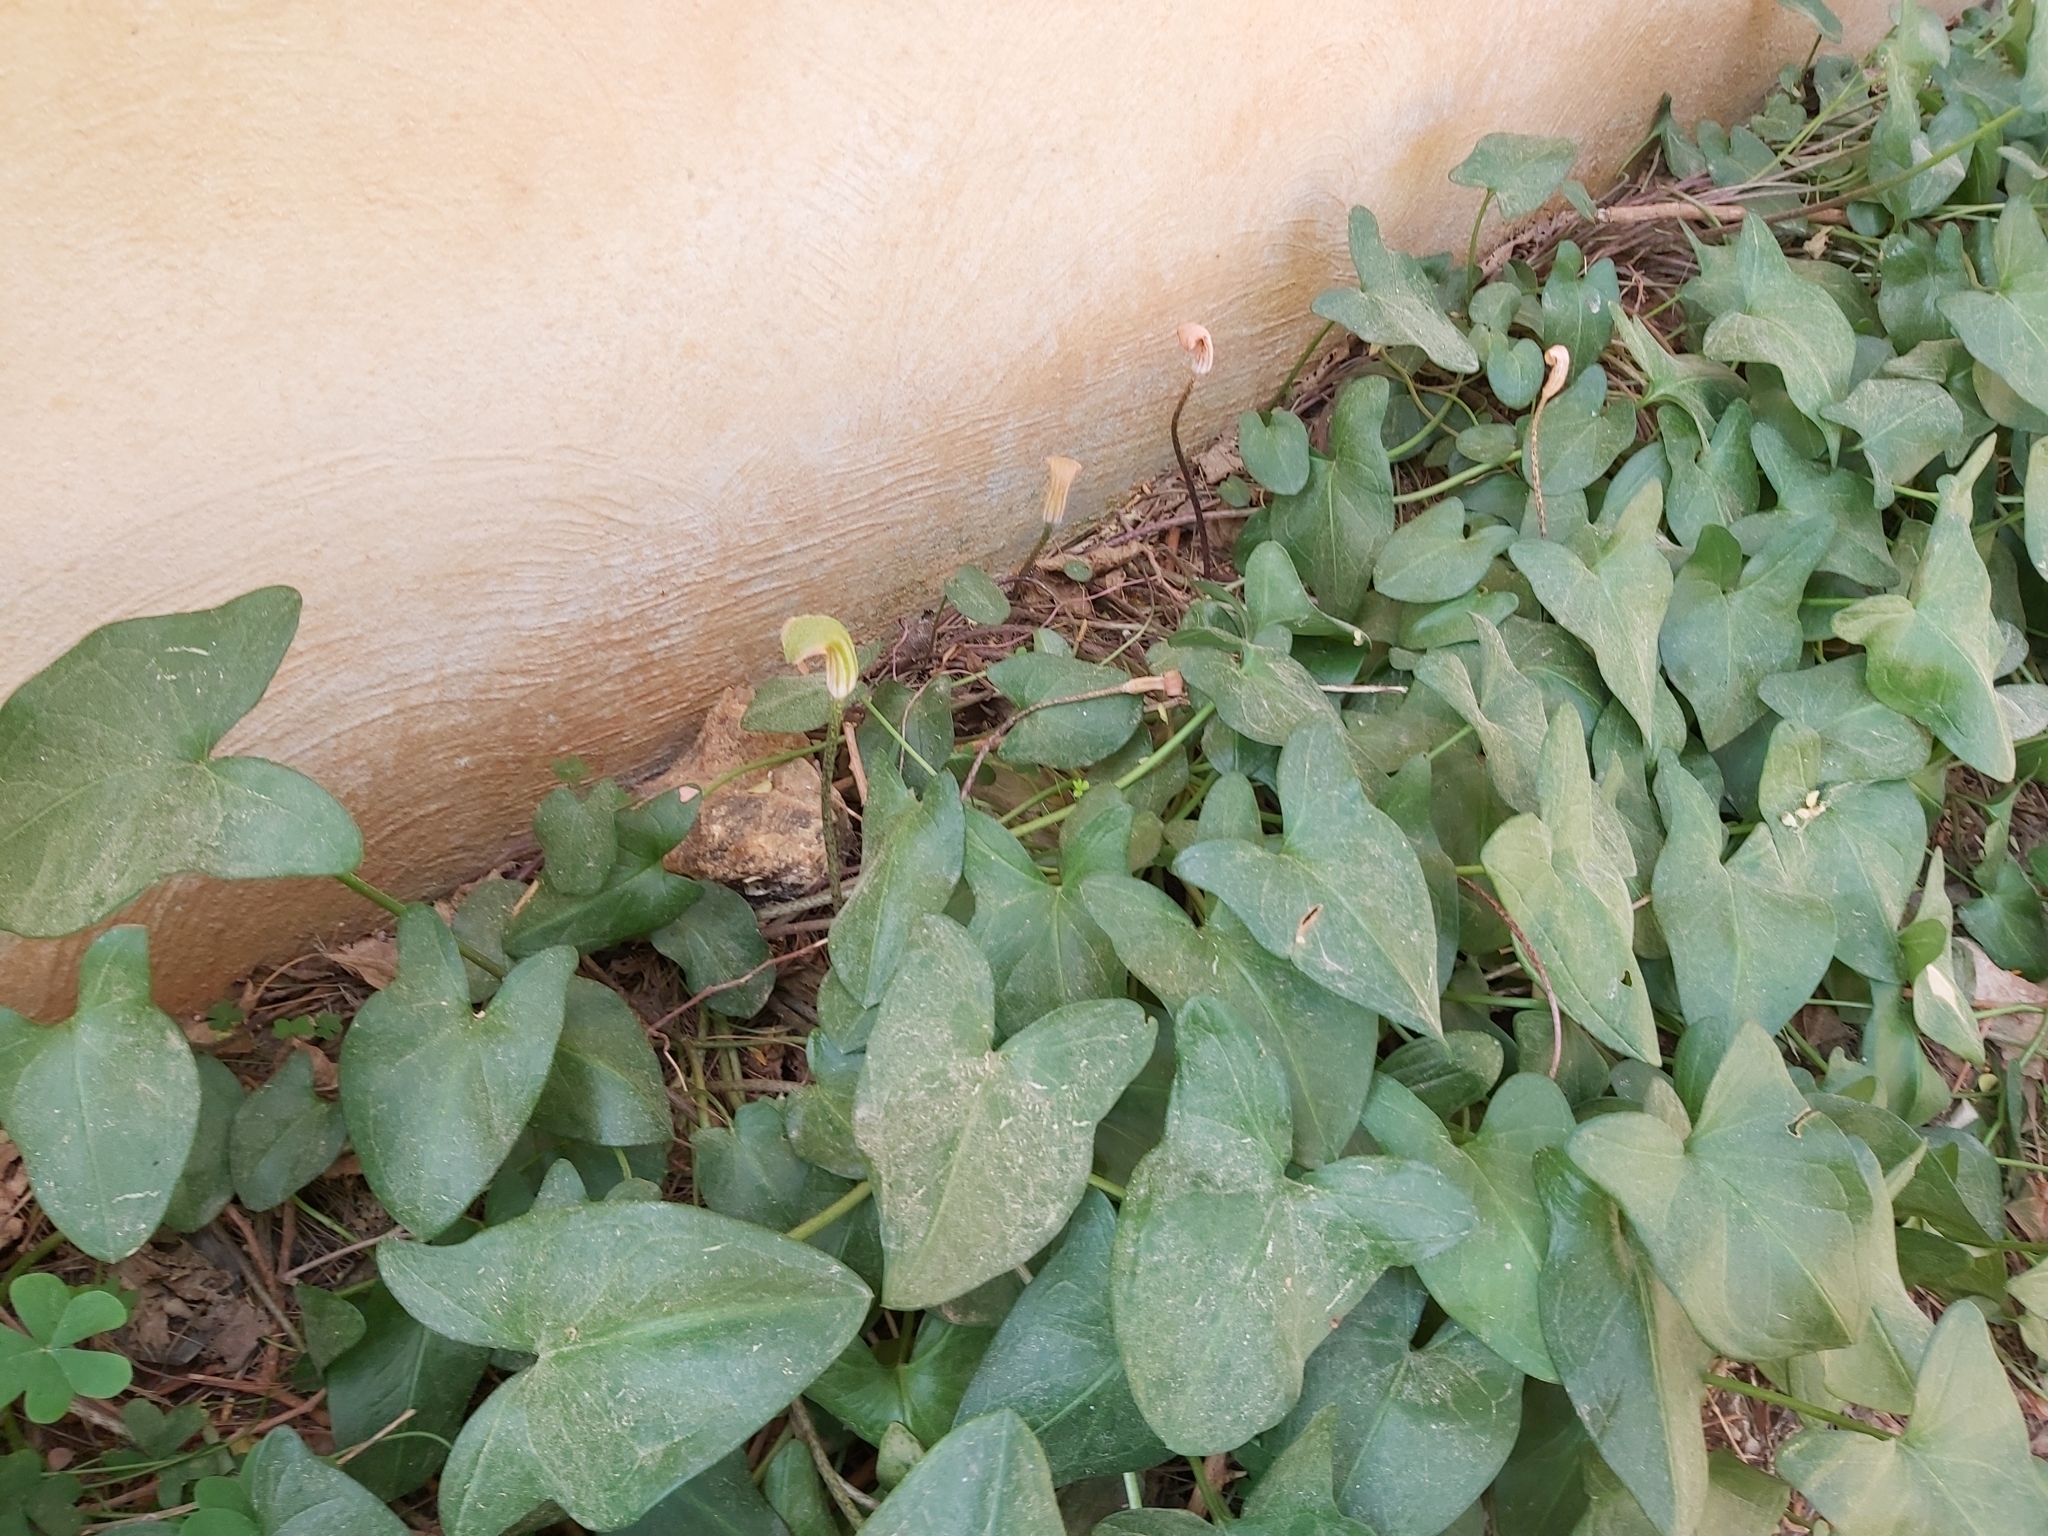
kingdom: Plantae
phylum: Tracheophyta
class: Liliopsida
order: Alismatales
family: Araceae
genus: Arisarum
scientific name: Arisarum vulgare
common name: Common arisarum
